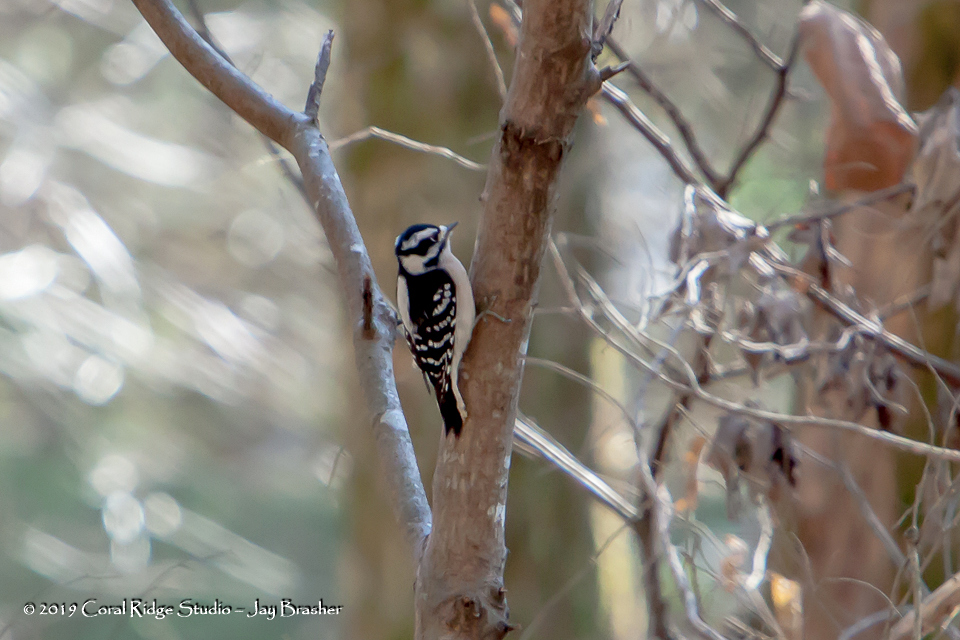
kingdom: Animalia
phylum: Chordata
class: Aves
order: Piciformes
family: Picidae
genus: Dryobates
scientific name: Dryobates pubescens
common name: Downy woodpecker
